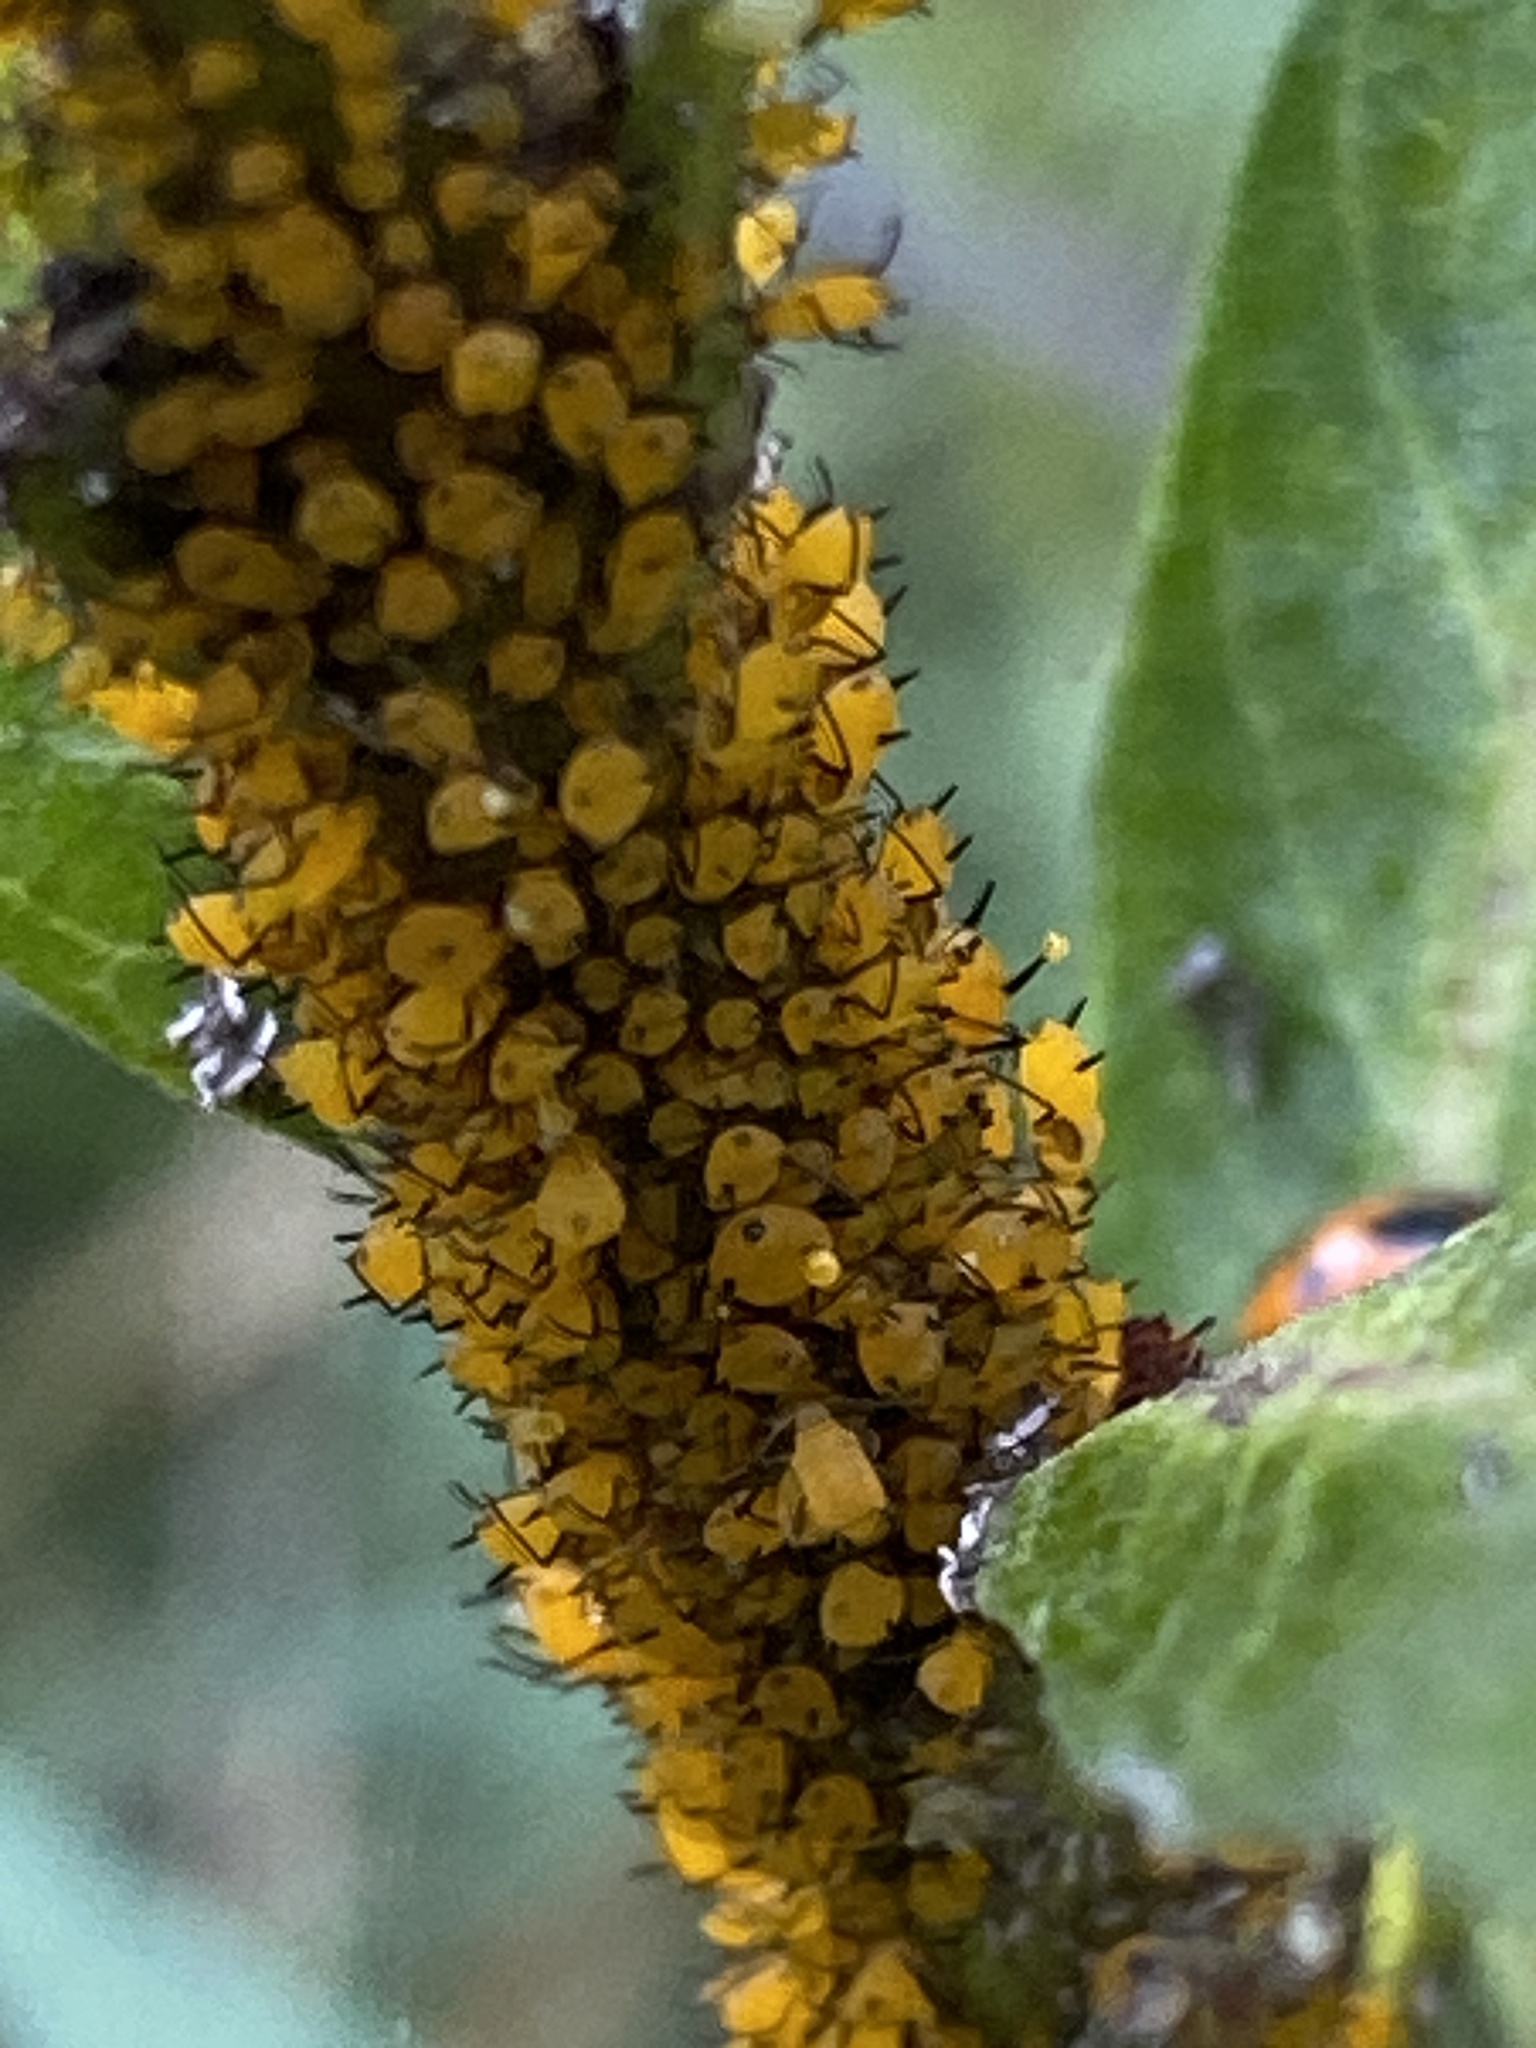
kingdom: Animalia
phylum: Arthropoda
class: Insecta
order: Hemiptera
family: Aphididae
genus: Aphis
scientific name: Aphis nerii
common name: Oleander aphid
